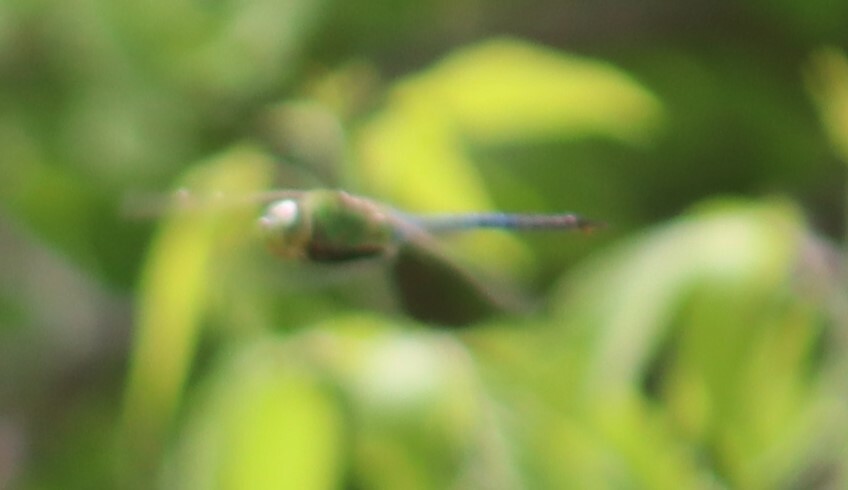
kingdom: Animalia
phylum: Arthropoda
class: Insecta
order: Odonata
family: Aeshnidae
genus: Anax
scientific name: Anax junius
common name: Common green darner
